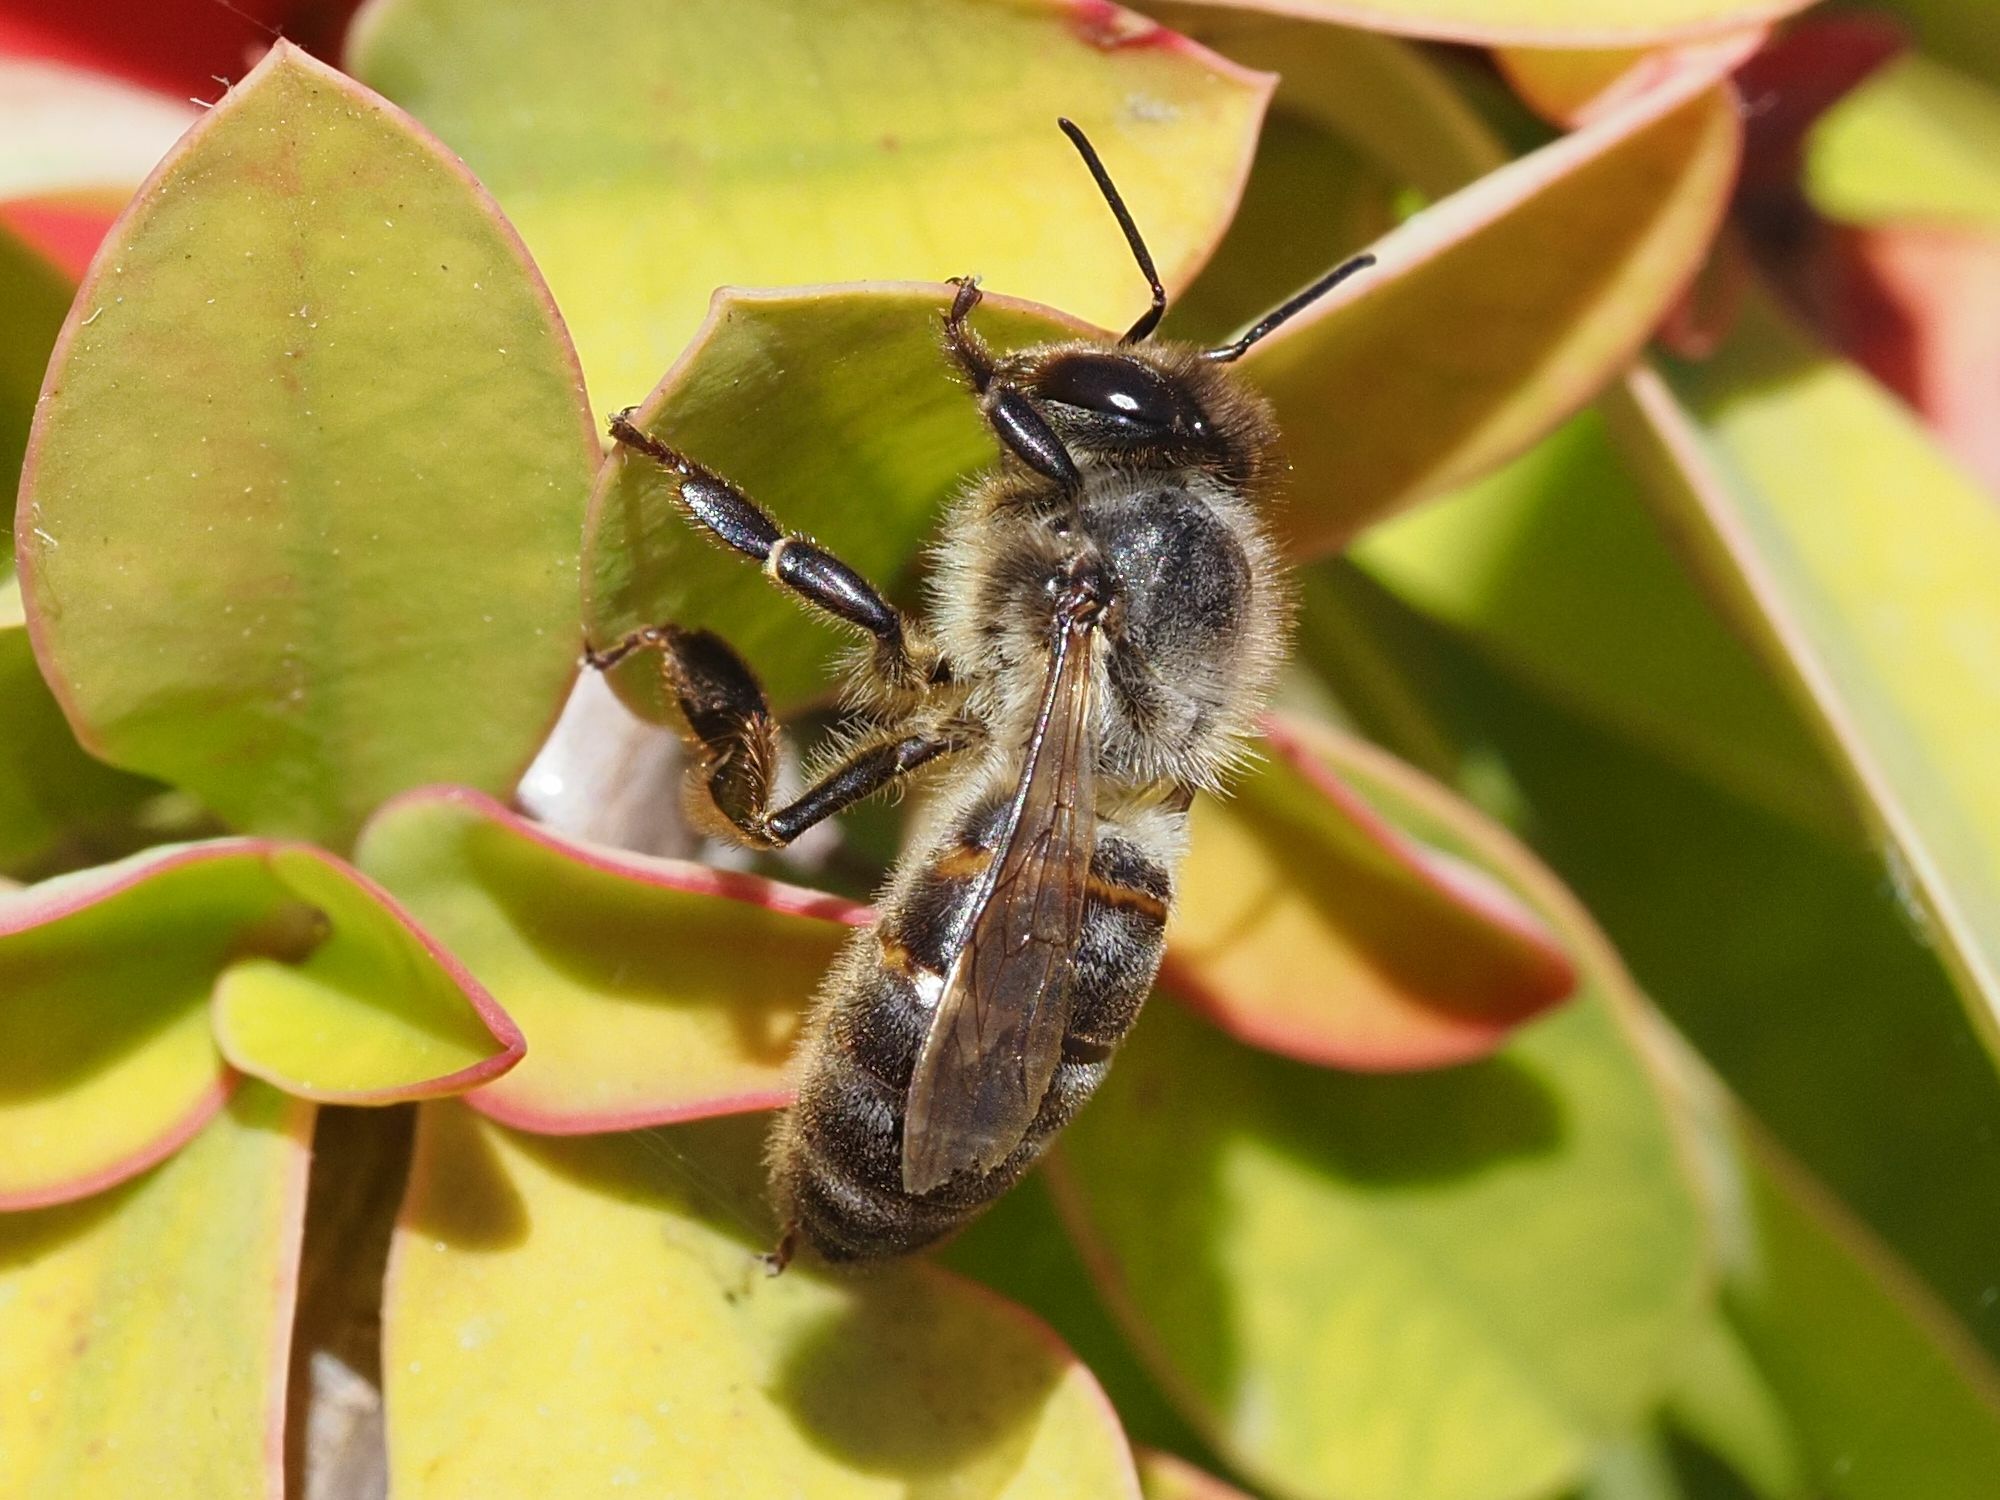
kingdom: Animalia
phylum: Arthropoda
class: Insecta
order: Hymenoptera
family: Apidae
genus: Apis
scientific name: Apis mellifera
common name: Honey bee
